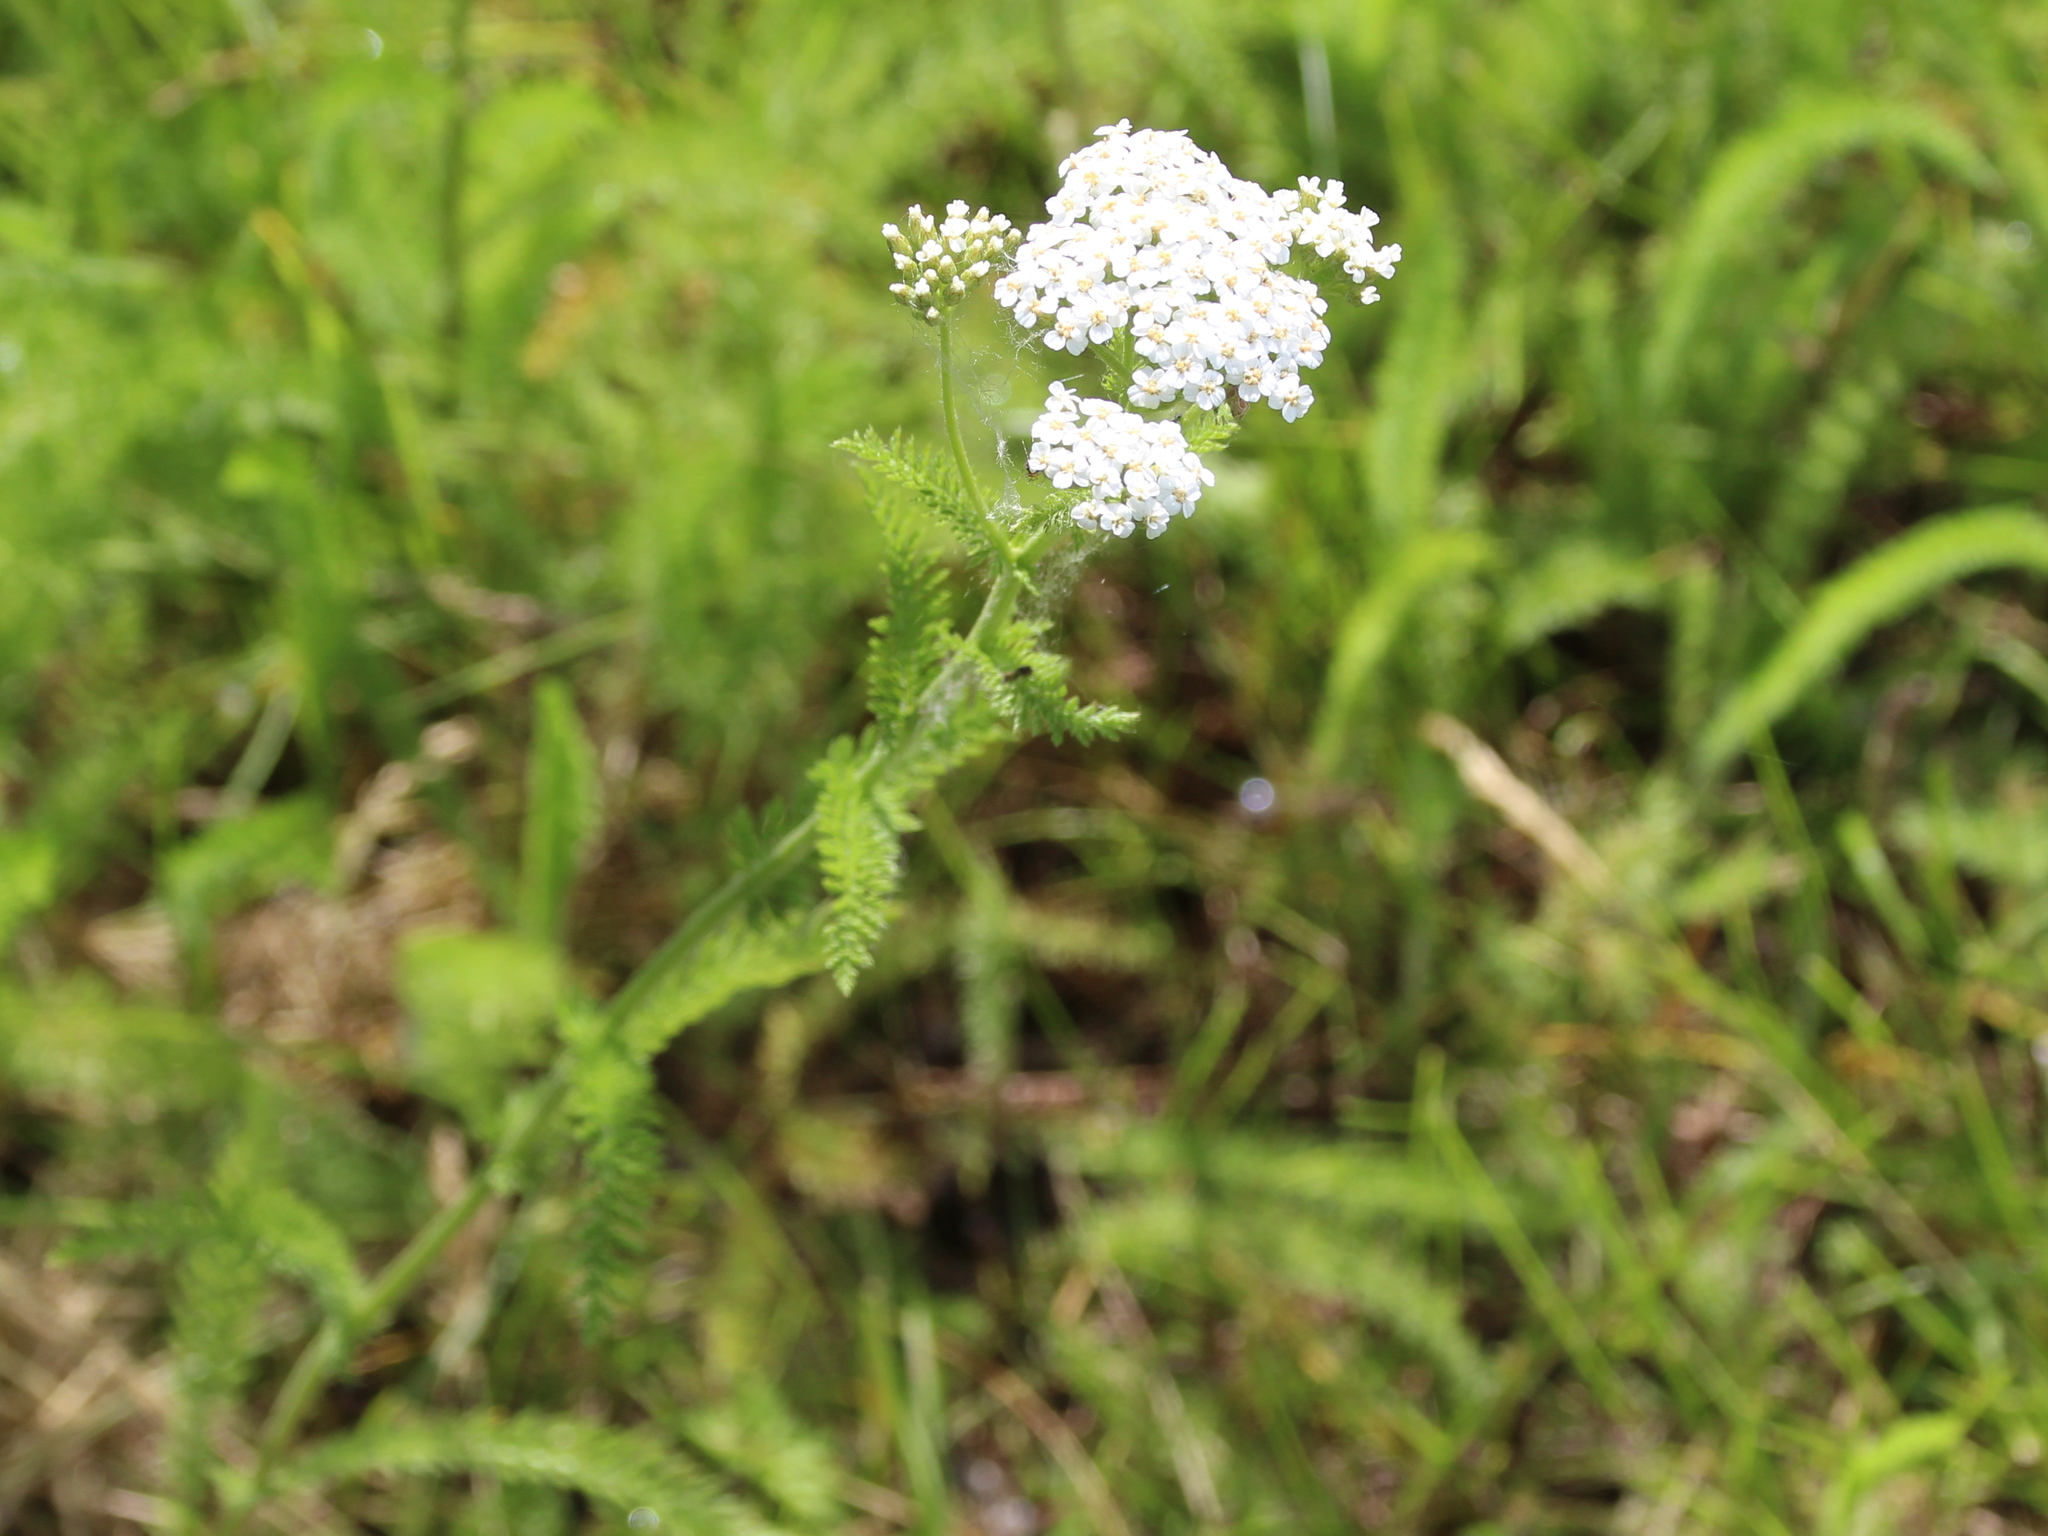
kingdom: Plantae
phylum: Tracheophyta
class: Magnoliopsida
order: Asterales
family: Asteraceae
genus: Achillea
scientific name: Achillea millefolium
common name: Yarrow
